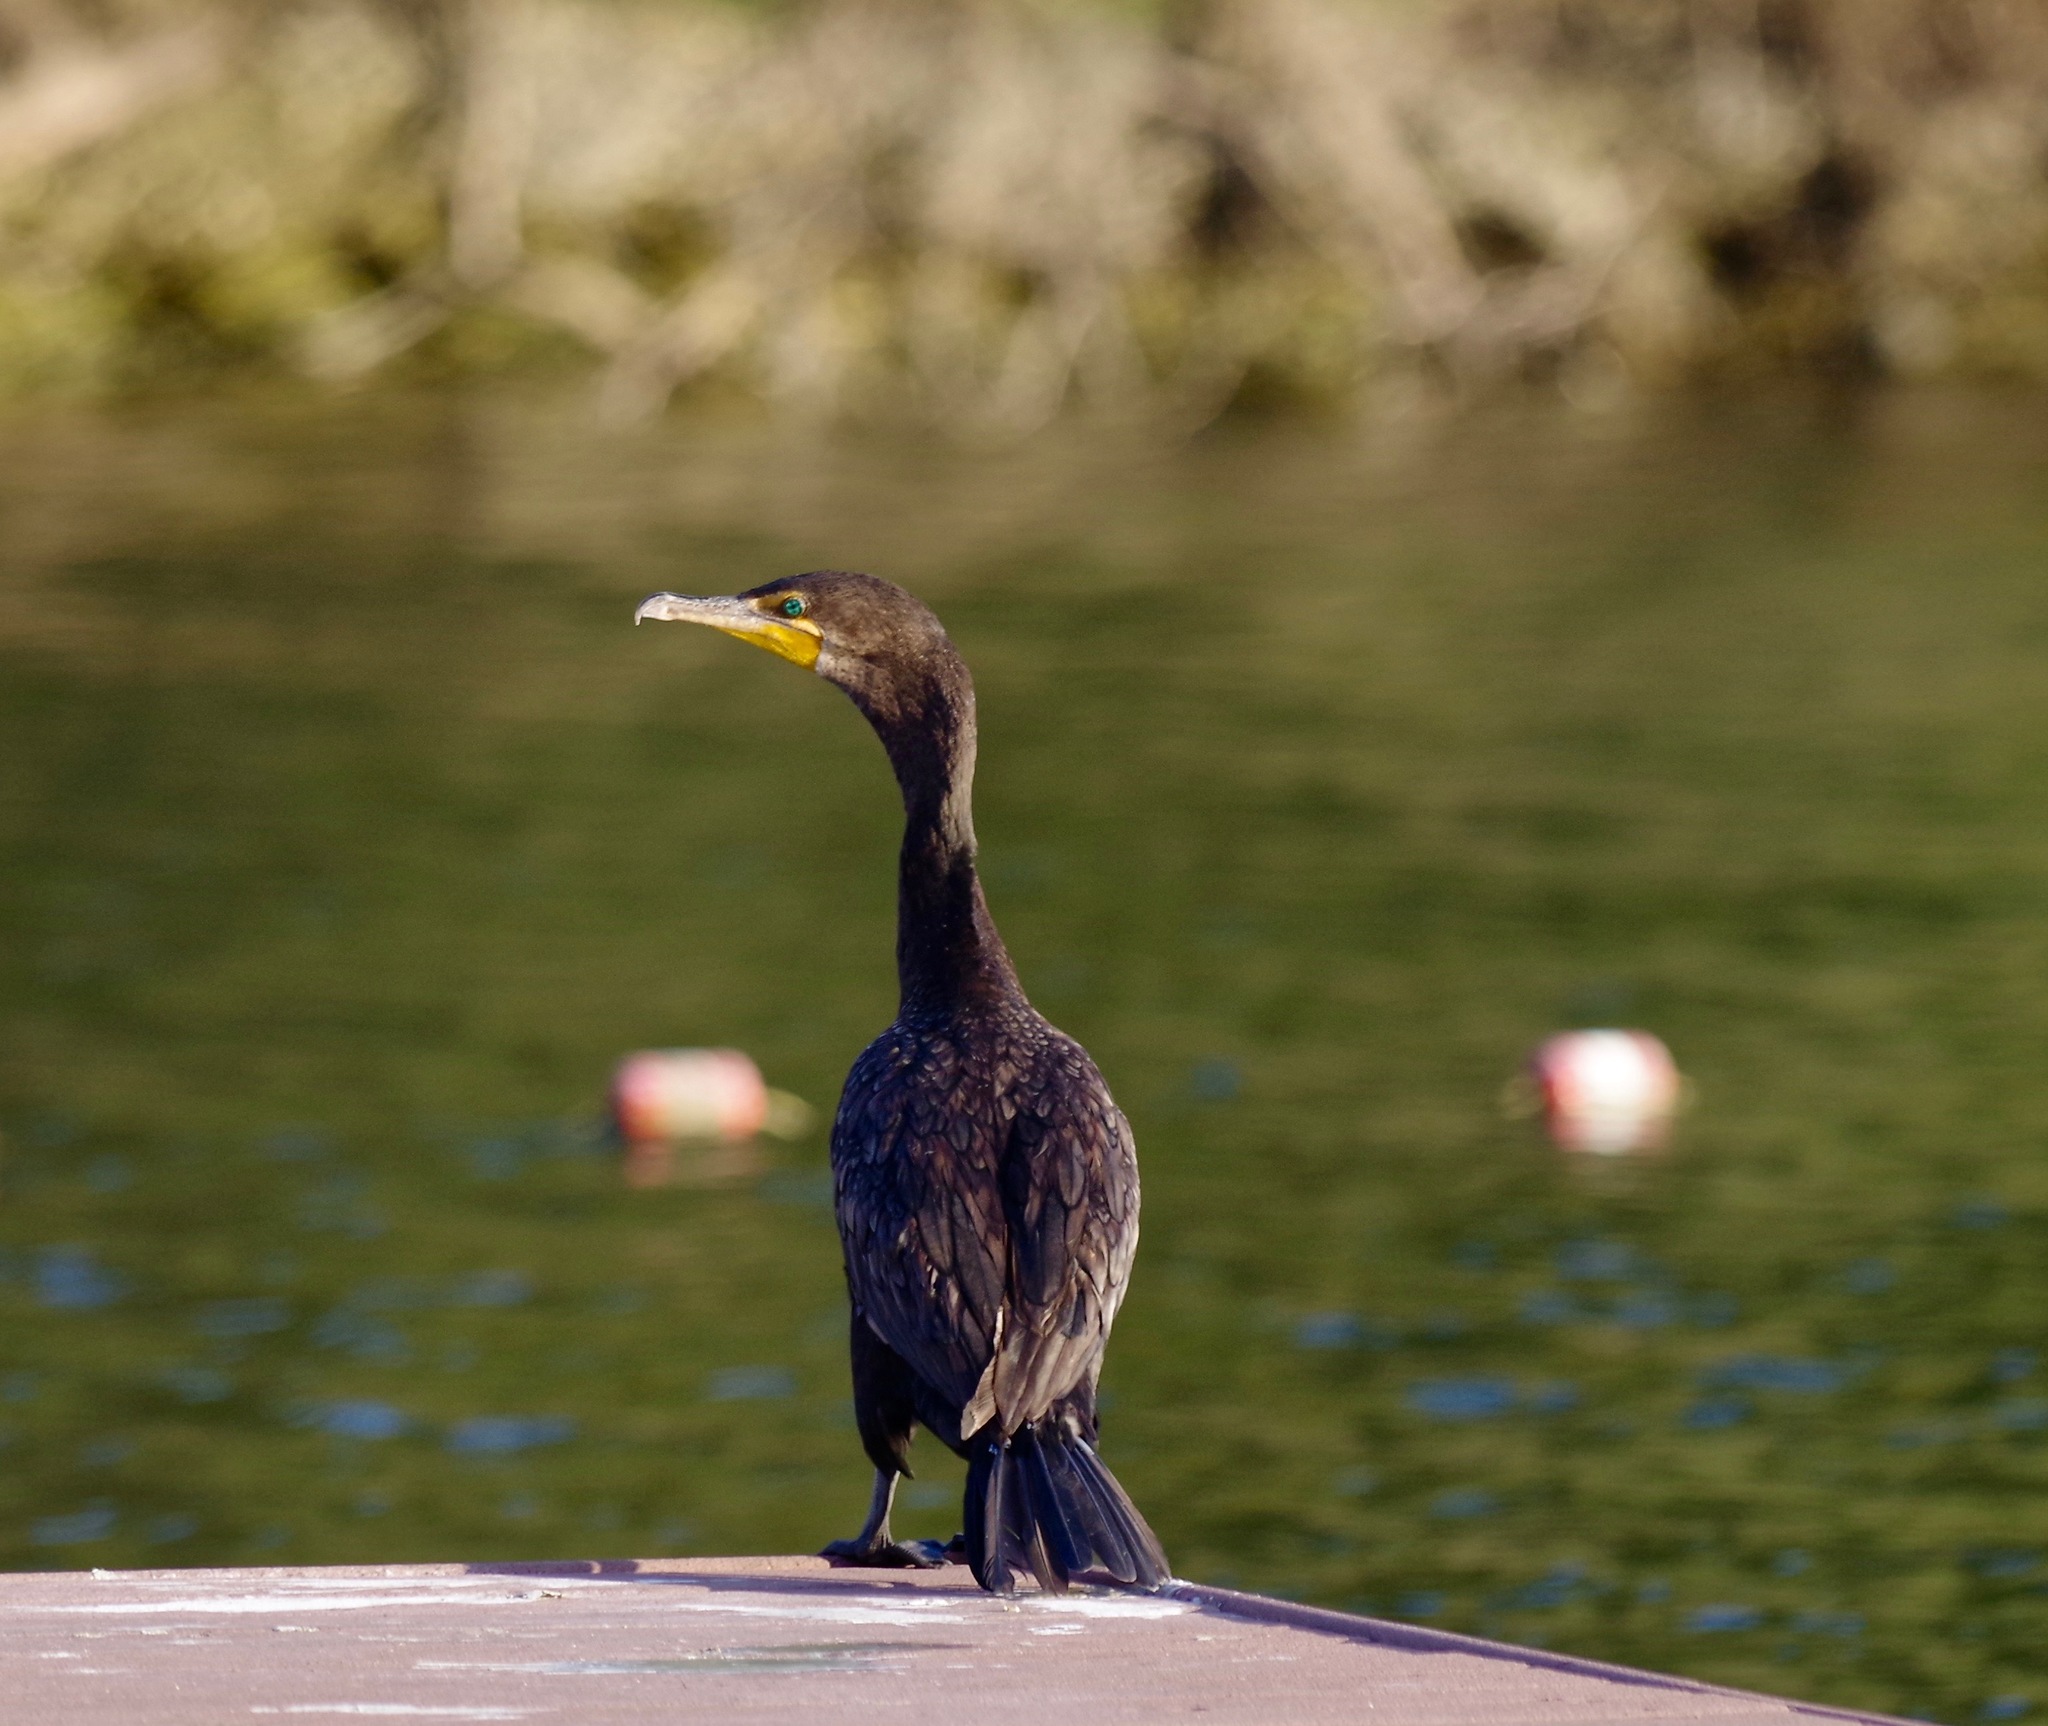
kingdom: Animalia
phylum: Chordata
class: Aves
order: Suliformes
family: Phalacrocoracidae
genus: Phalacrocorax
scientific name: Phalacrocorax auritus
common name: Double-crested cormorant
